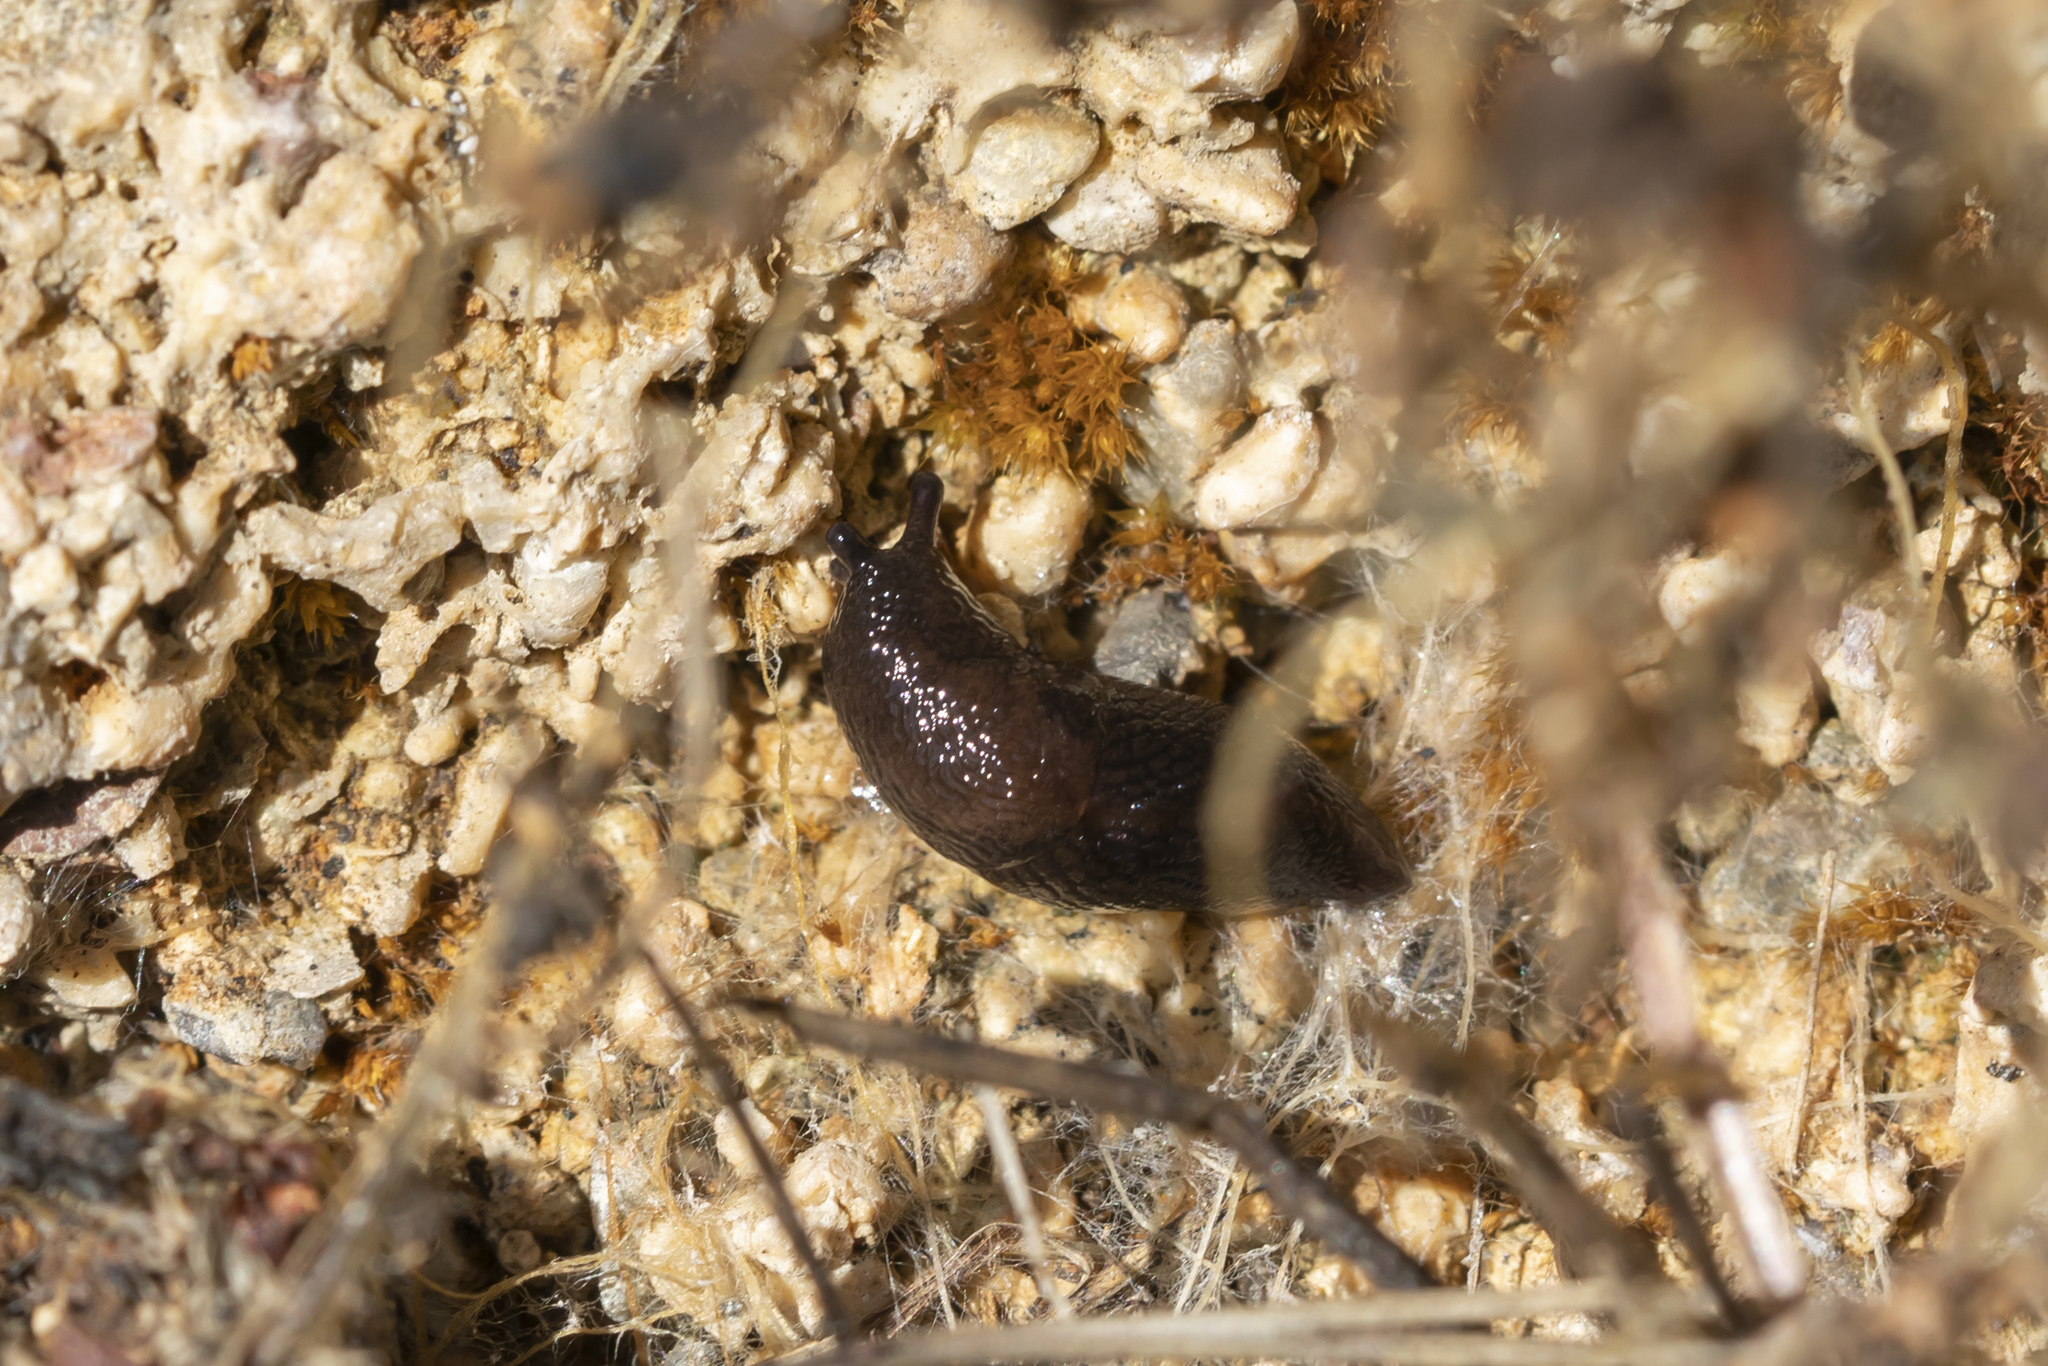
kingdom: Animalia
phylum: Mollusca
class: Gastropoda
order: Stylommatophora
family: Agriolimacidae
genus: Mesolimax
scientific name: Mesolimax brauni
